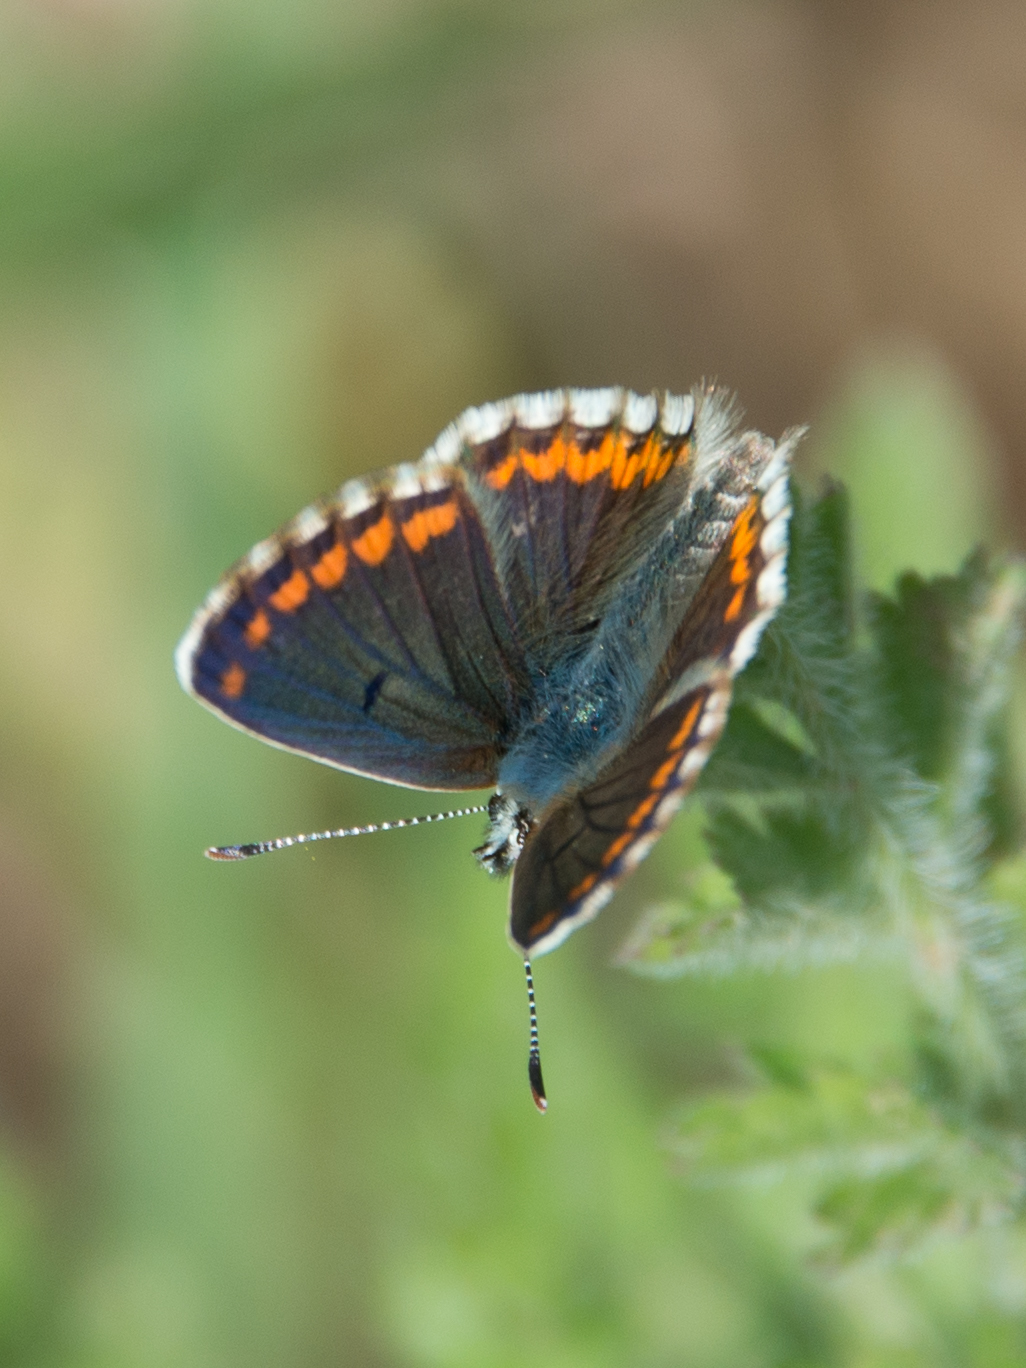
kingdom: Animalia
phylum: Arthropoda
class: Insecta
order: Lepidoptera
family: Lycaenidae
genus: Aricia
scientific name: Aricia cramera
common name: Eschscholtz´s brown  argus
